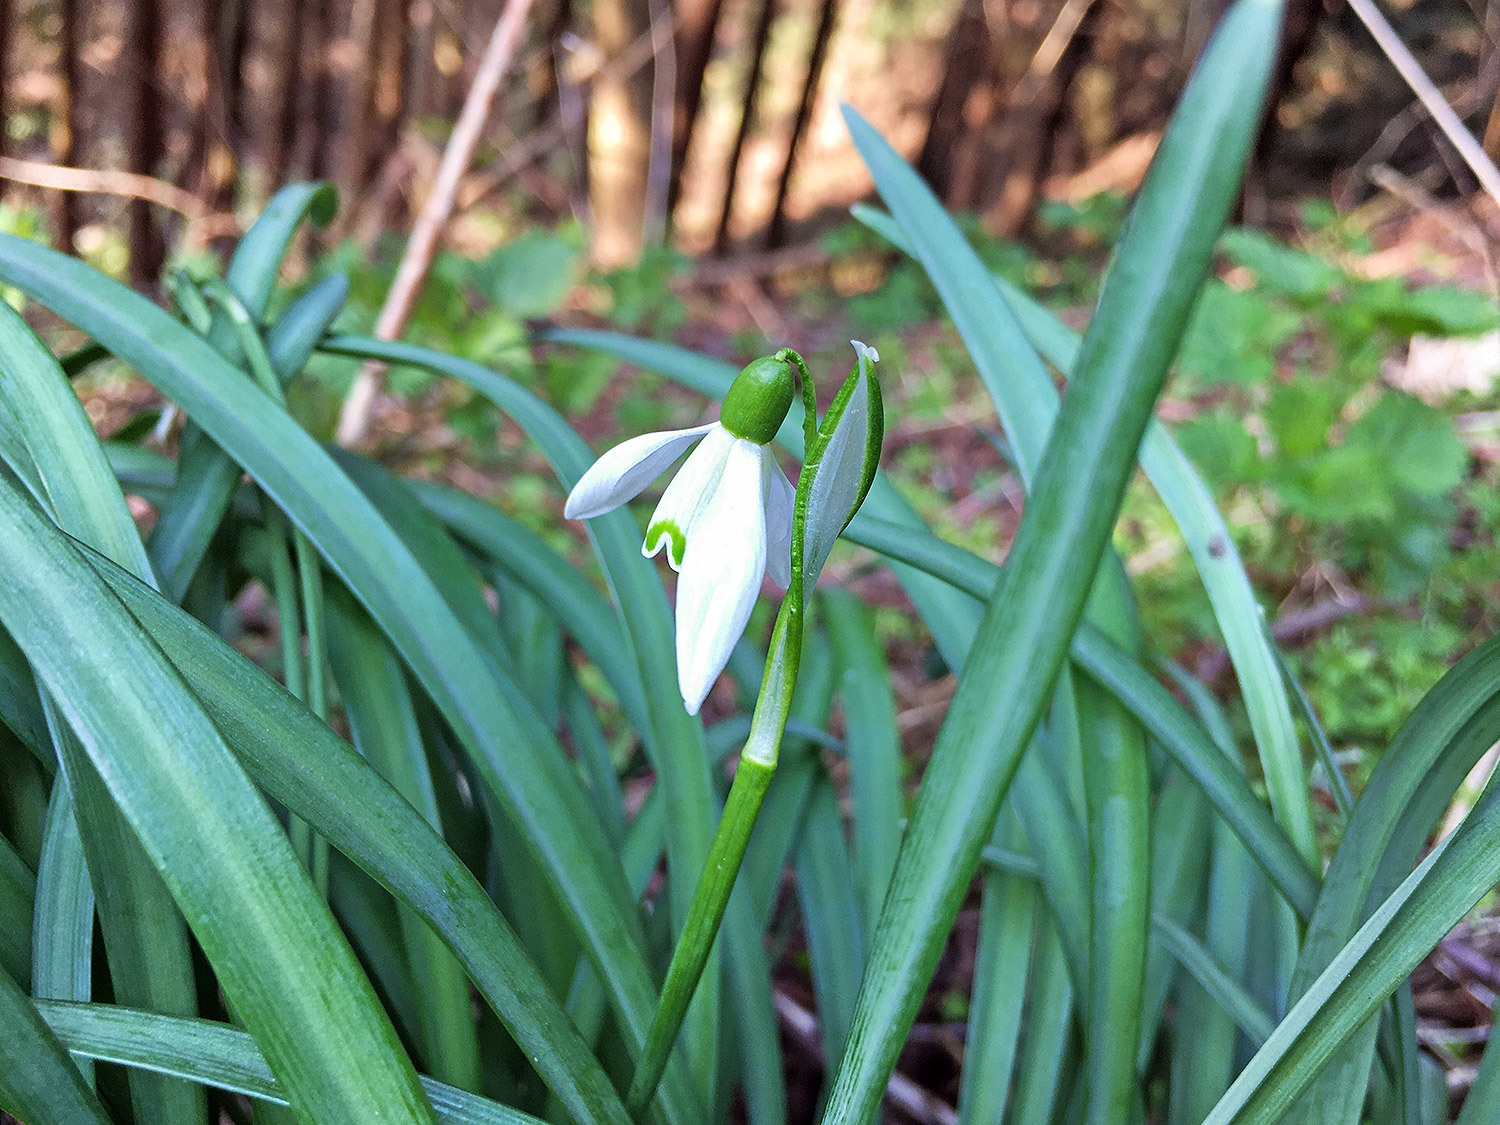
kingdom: Plantae
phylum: Tracheophyta
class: Liliopsida
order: Asparagales
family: Amaryllidaceae
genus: Galanthus
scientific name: Galanthus nivalis
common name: Snowdrop
